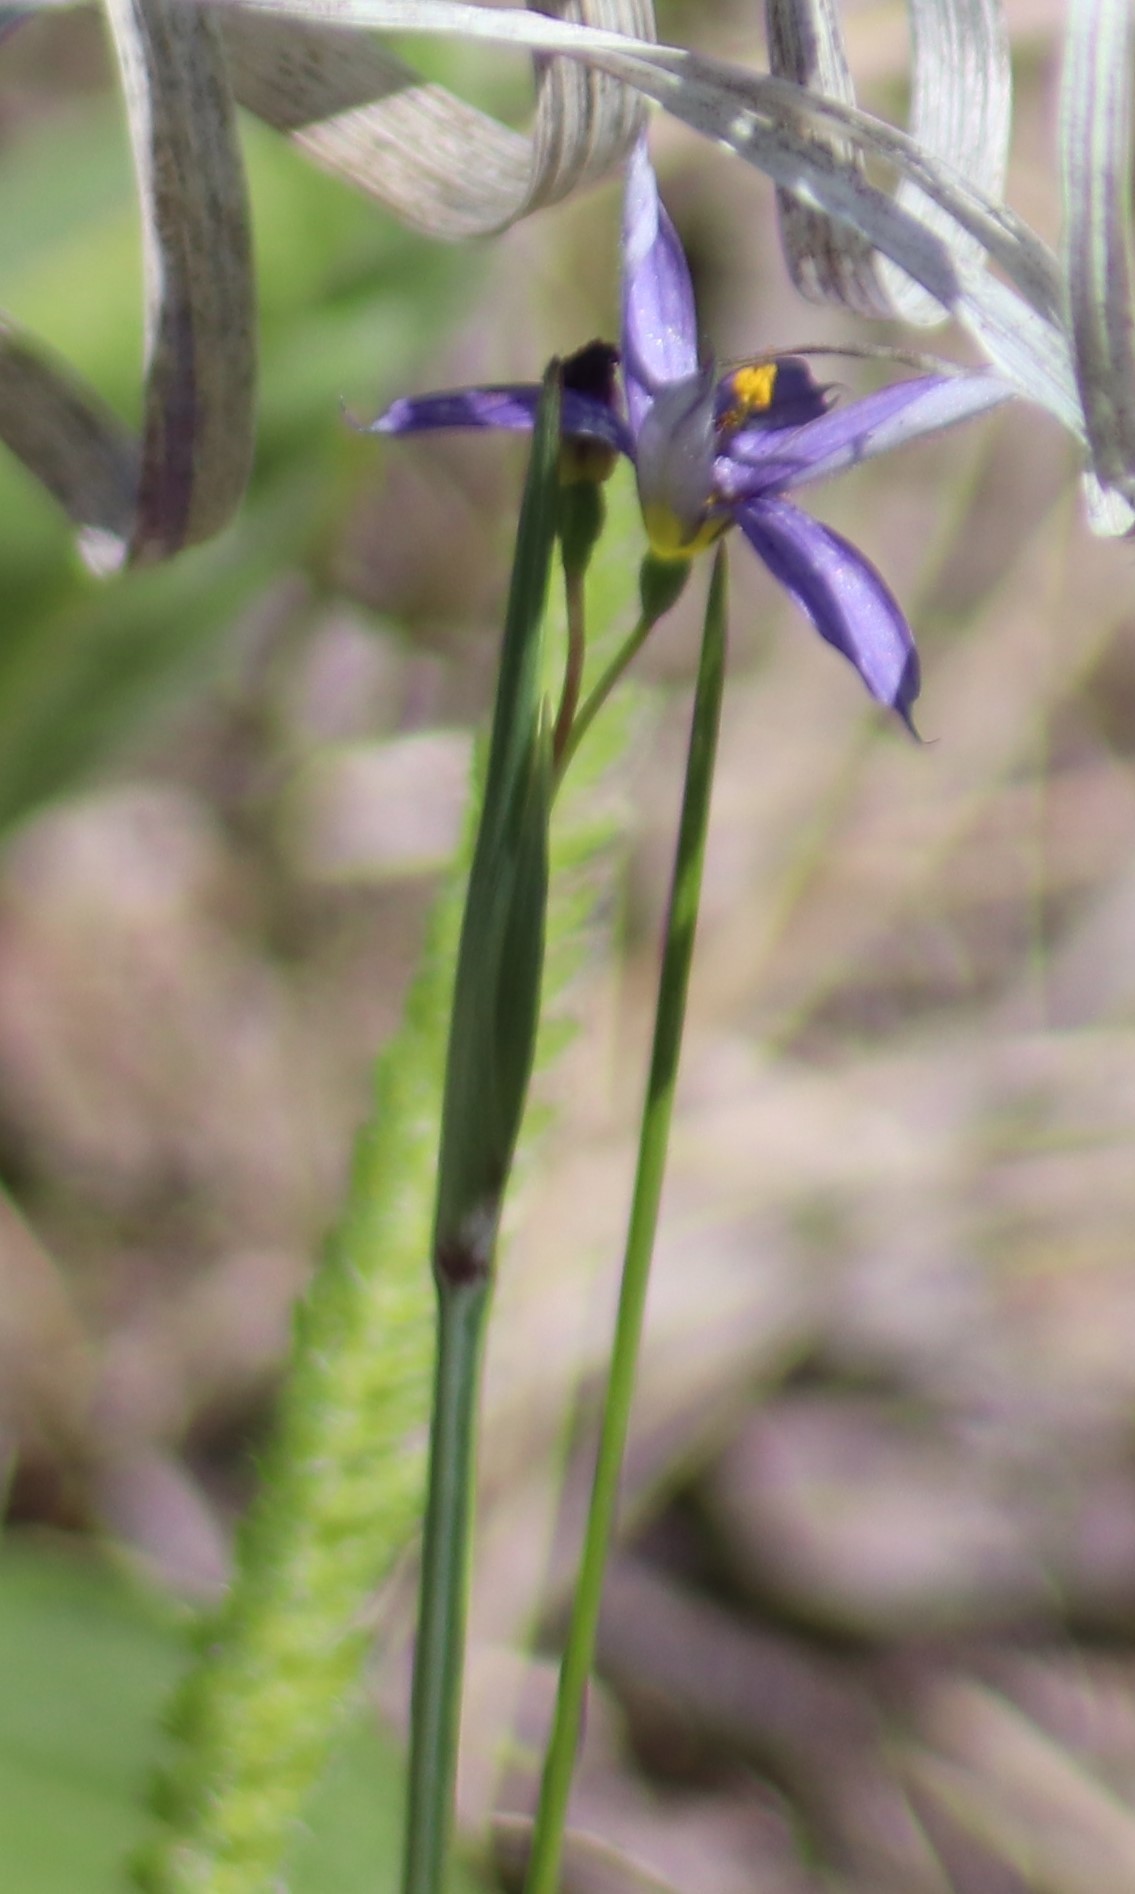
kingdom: Plantae
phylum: Tracheophyta
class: Liliopsida
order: Asparagales
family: Iridaceae
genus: Sisyrinchium
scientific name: Sisyrinchium montanum
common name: American blue-eyed-grass
